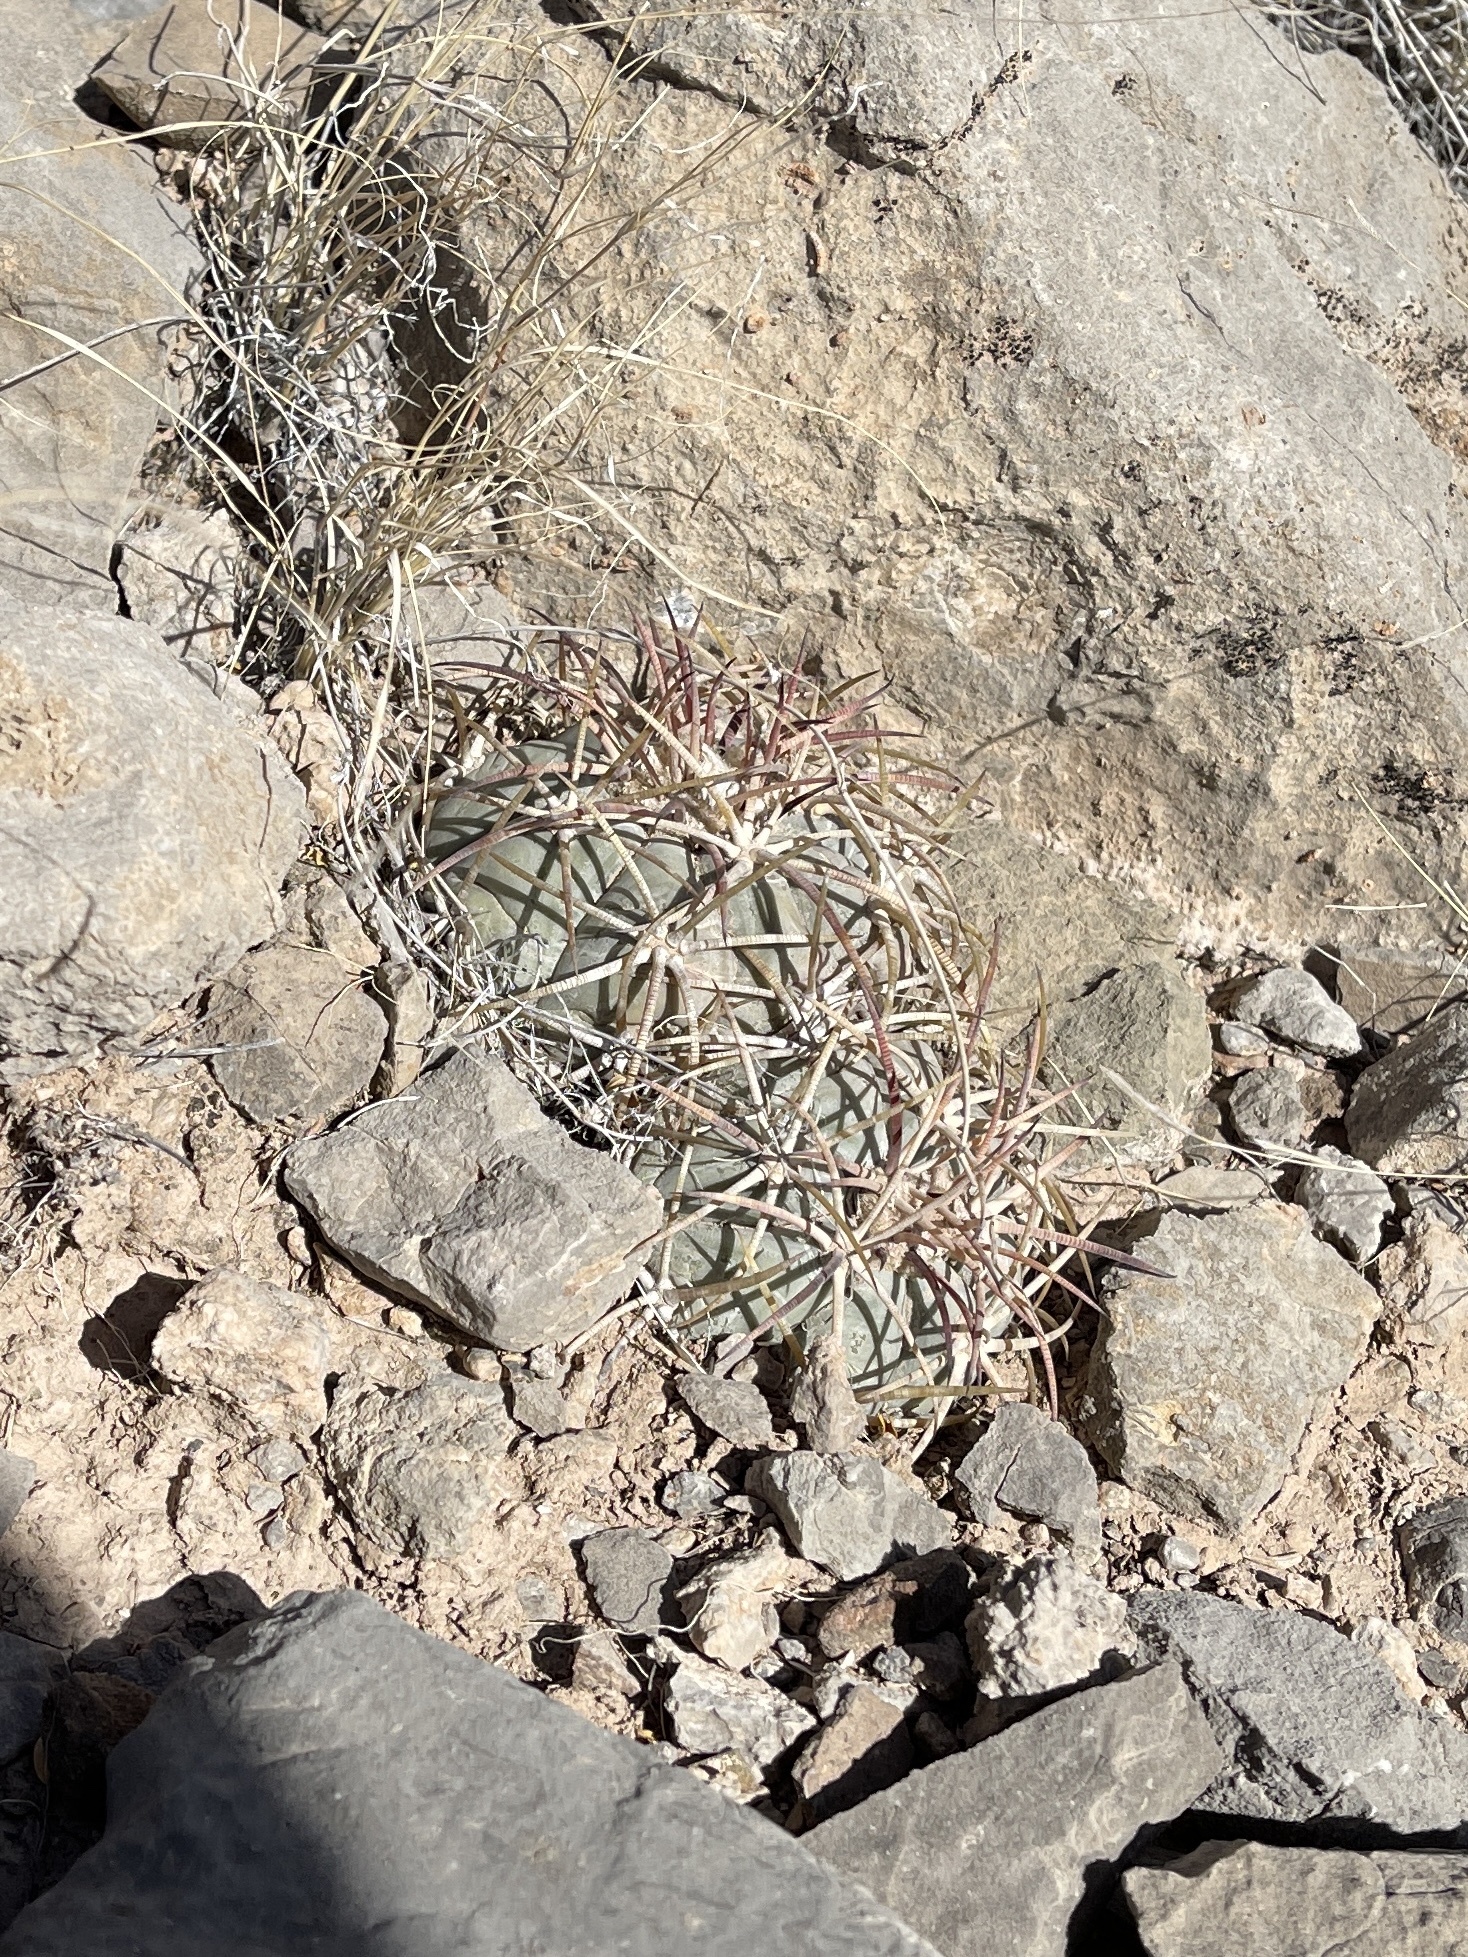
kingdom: Plantae
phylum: Tracheophyta
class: Magnoliopsida
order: Caryophyllales
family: Cactaceae
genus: Echinocactus
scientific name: Echinocactus horizonthalonius
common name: Devilshead
